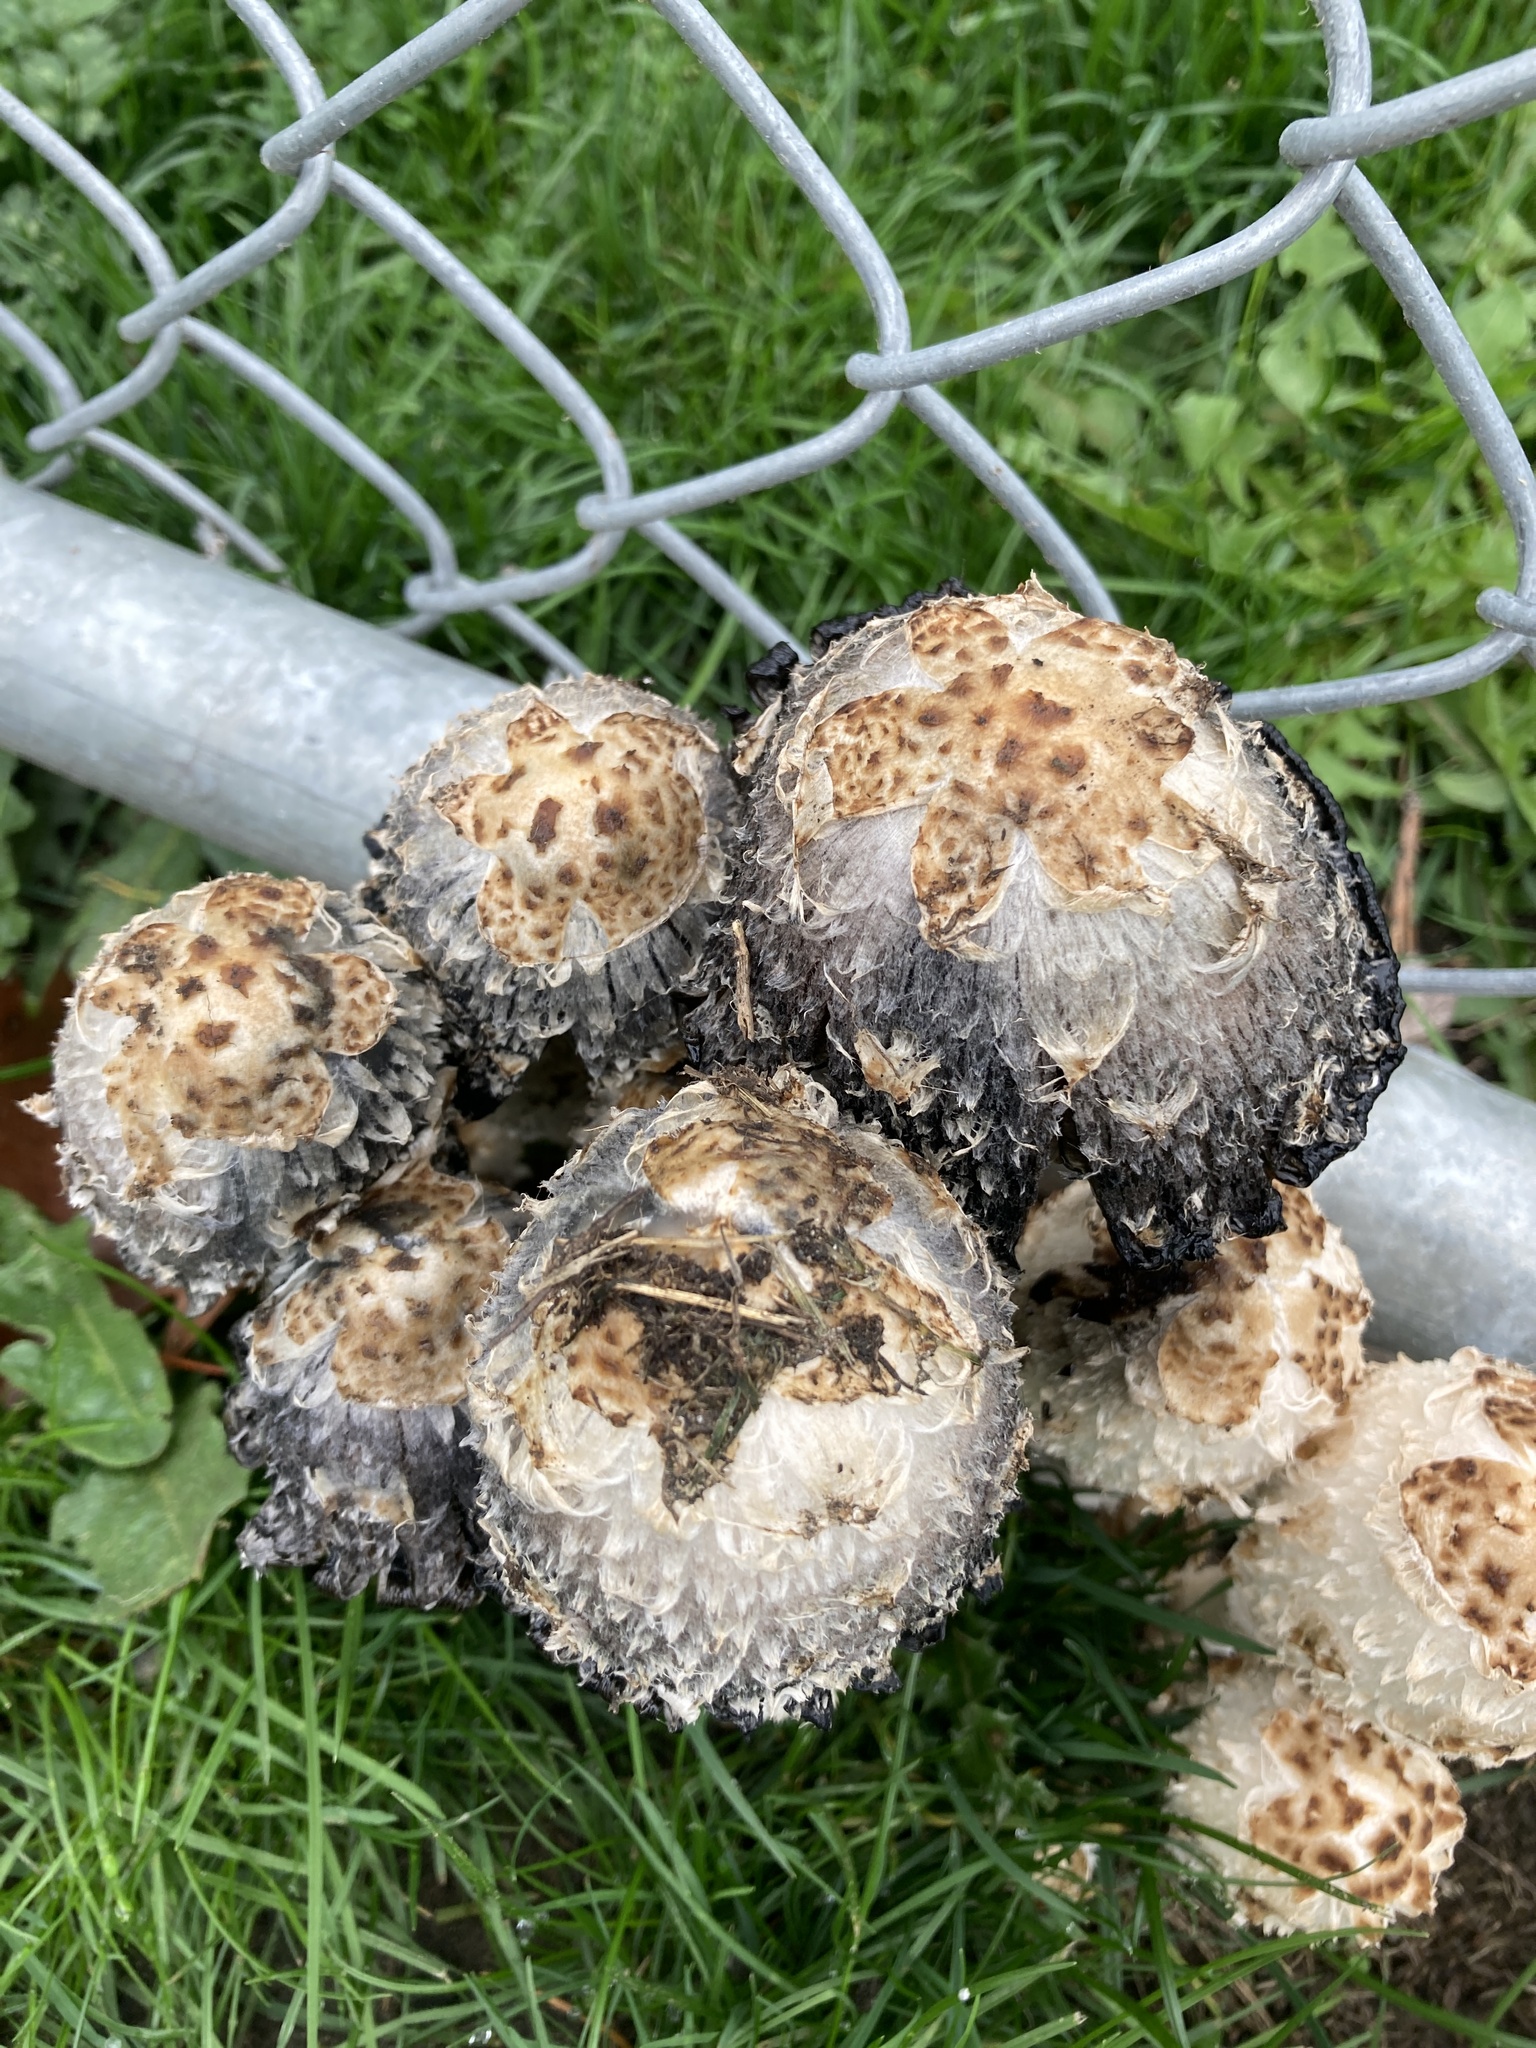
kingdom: Fungi
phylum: Basidiomycota
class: Agaricomycetes
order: Agaricales
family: Agaricaceae
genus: Coprinus
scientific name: Coprinus comatus
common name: Lawyer's wig
